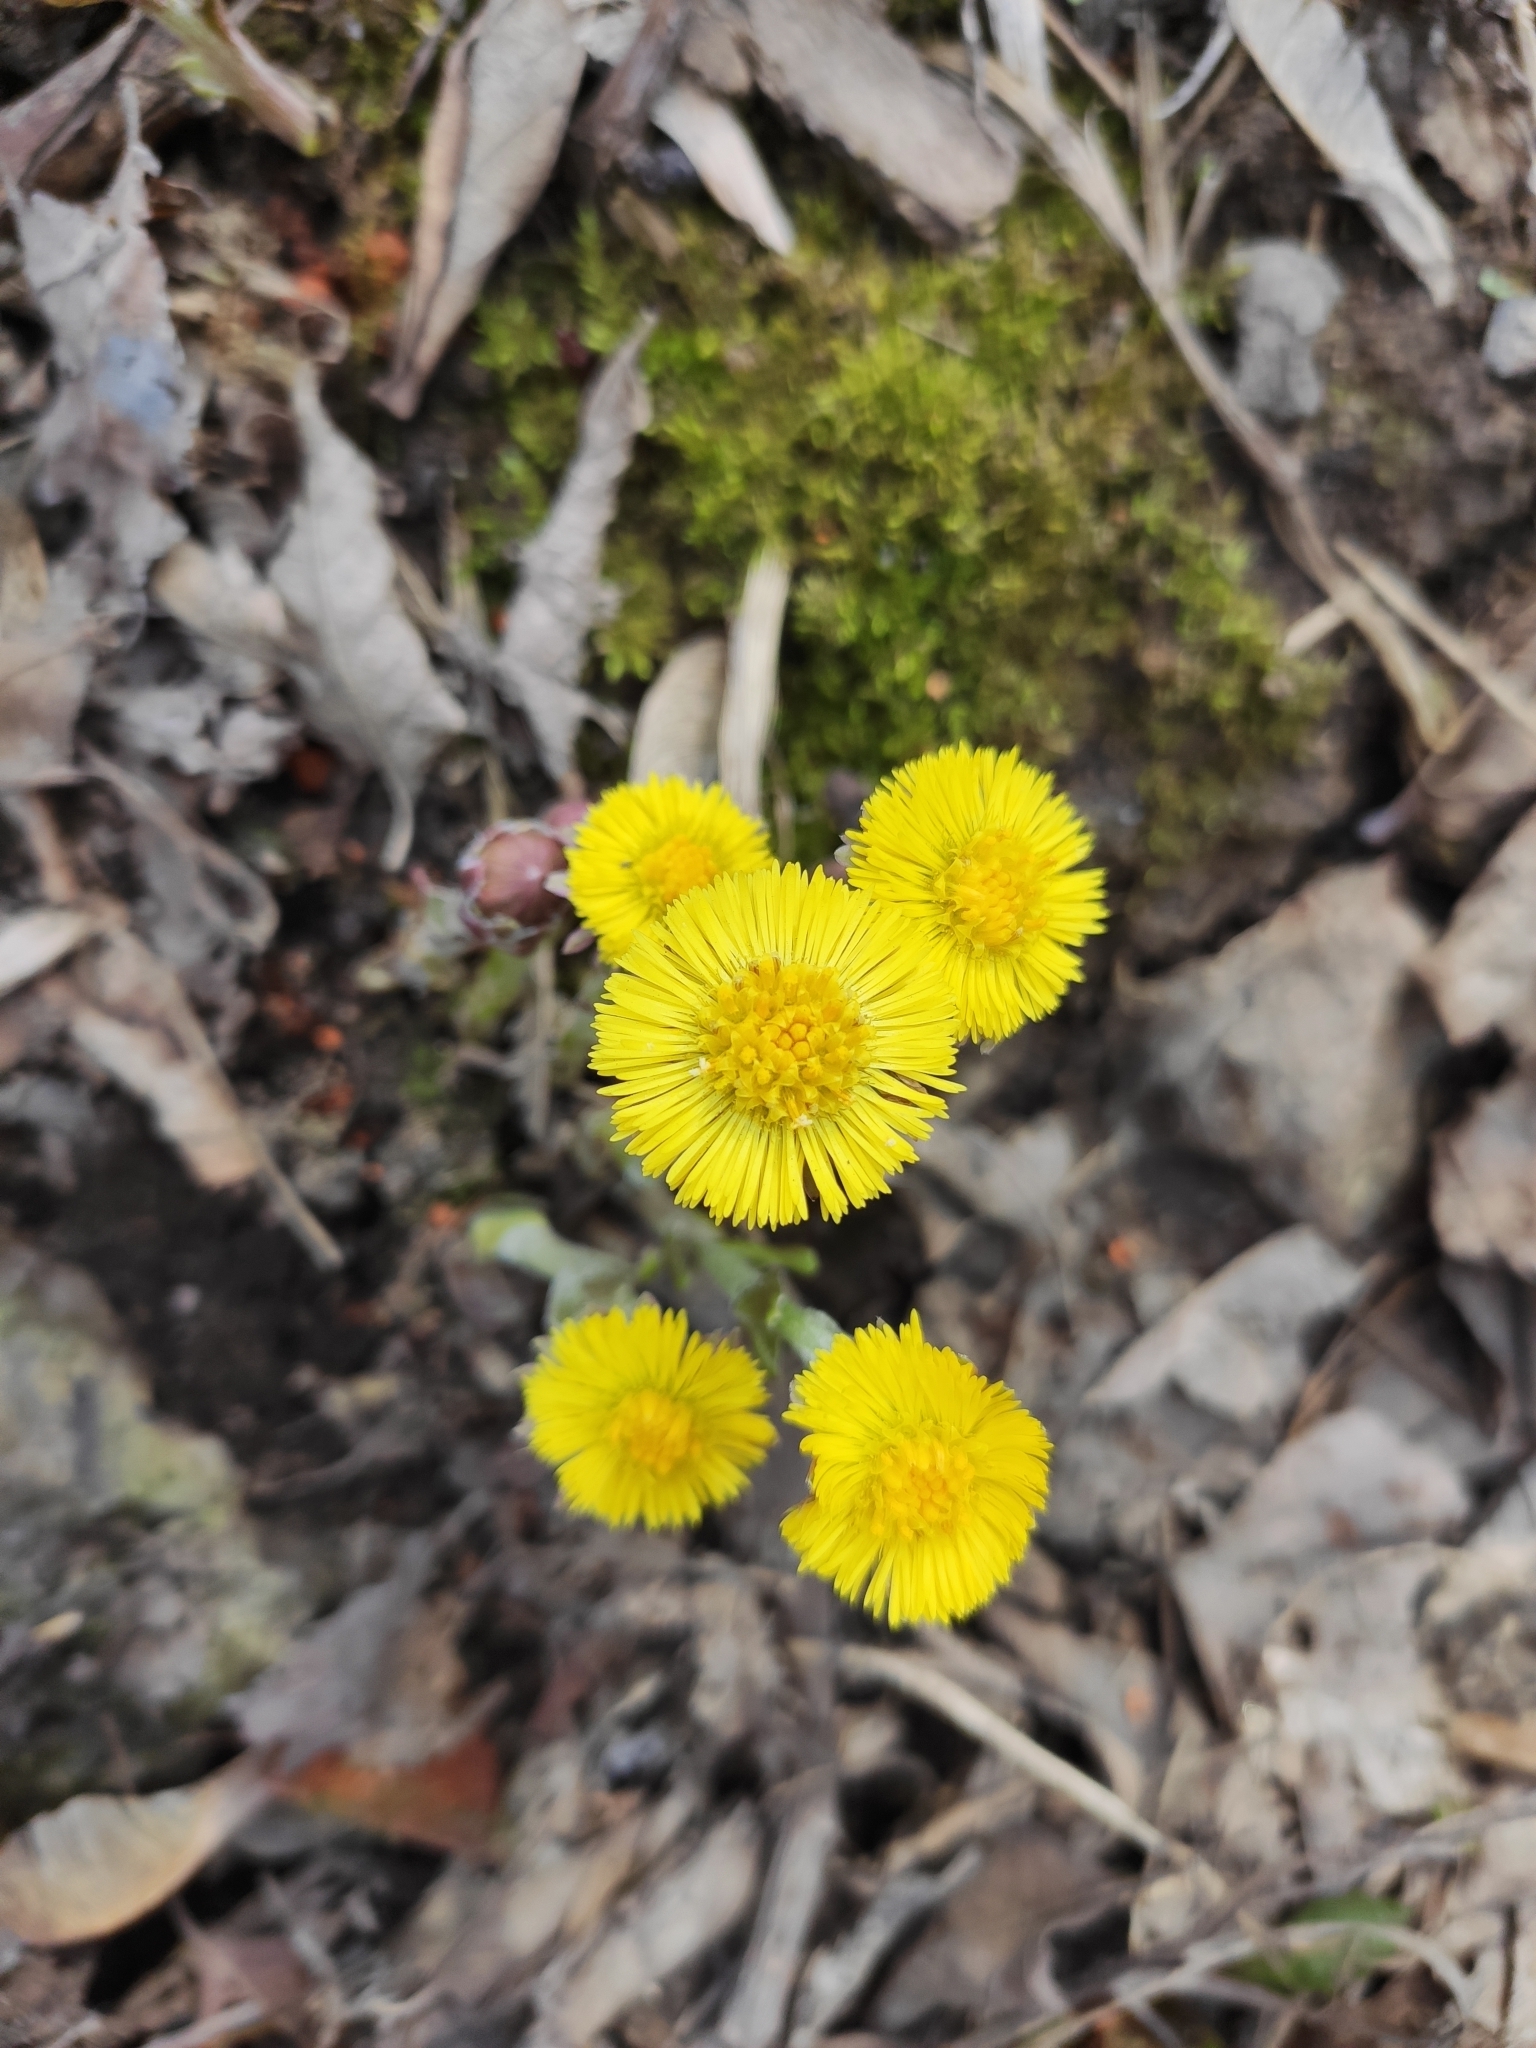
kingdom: Plantae
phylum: Tracheophyta
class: Magnoliopsida
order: Asterales
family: Asteraceae
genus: Tussilago
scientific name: Tussilago farfara
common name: Coltsfoot
